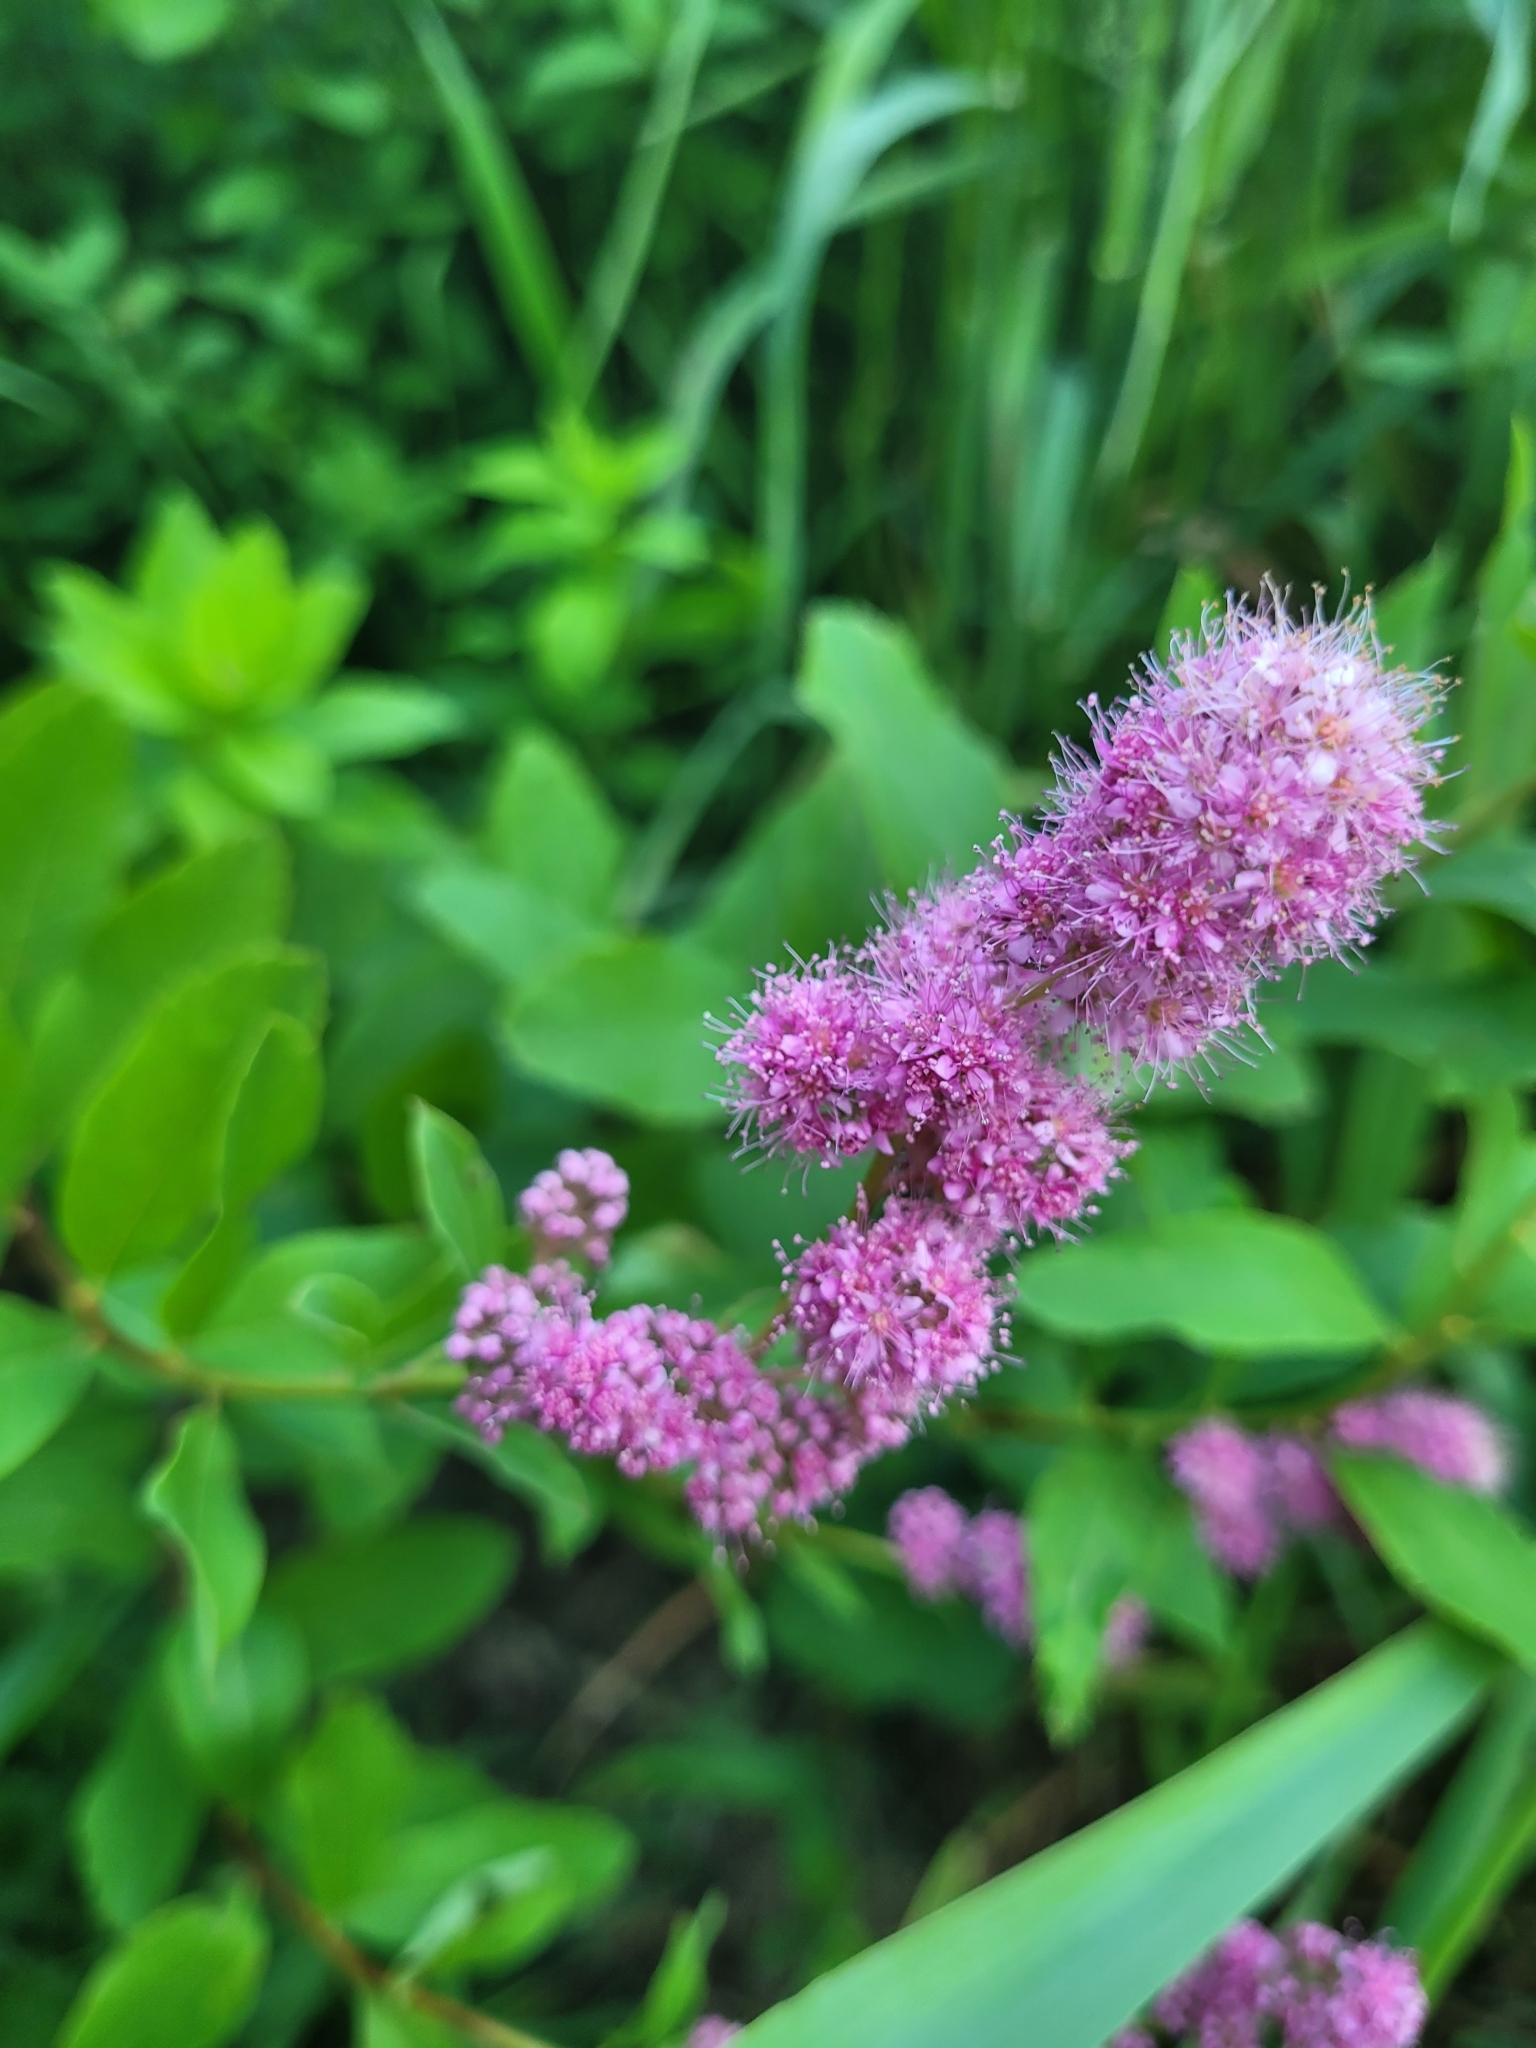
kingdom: Plantae
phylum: Tracheophyta
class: Magnoliopsida
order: Rosales
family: Rosaceae
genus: Spiraea
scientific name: Spiraea douglasii
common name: Steeplebush
